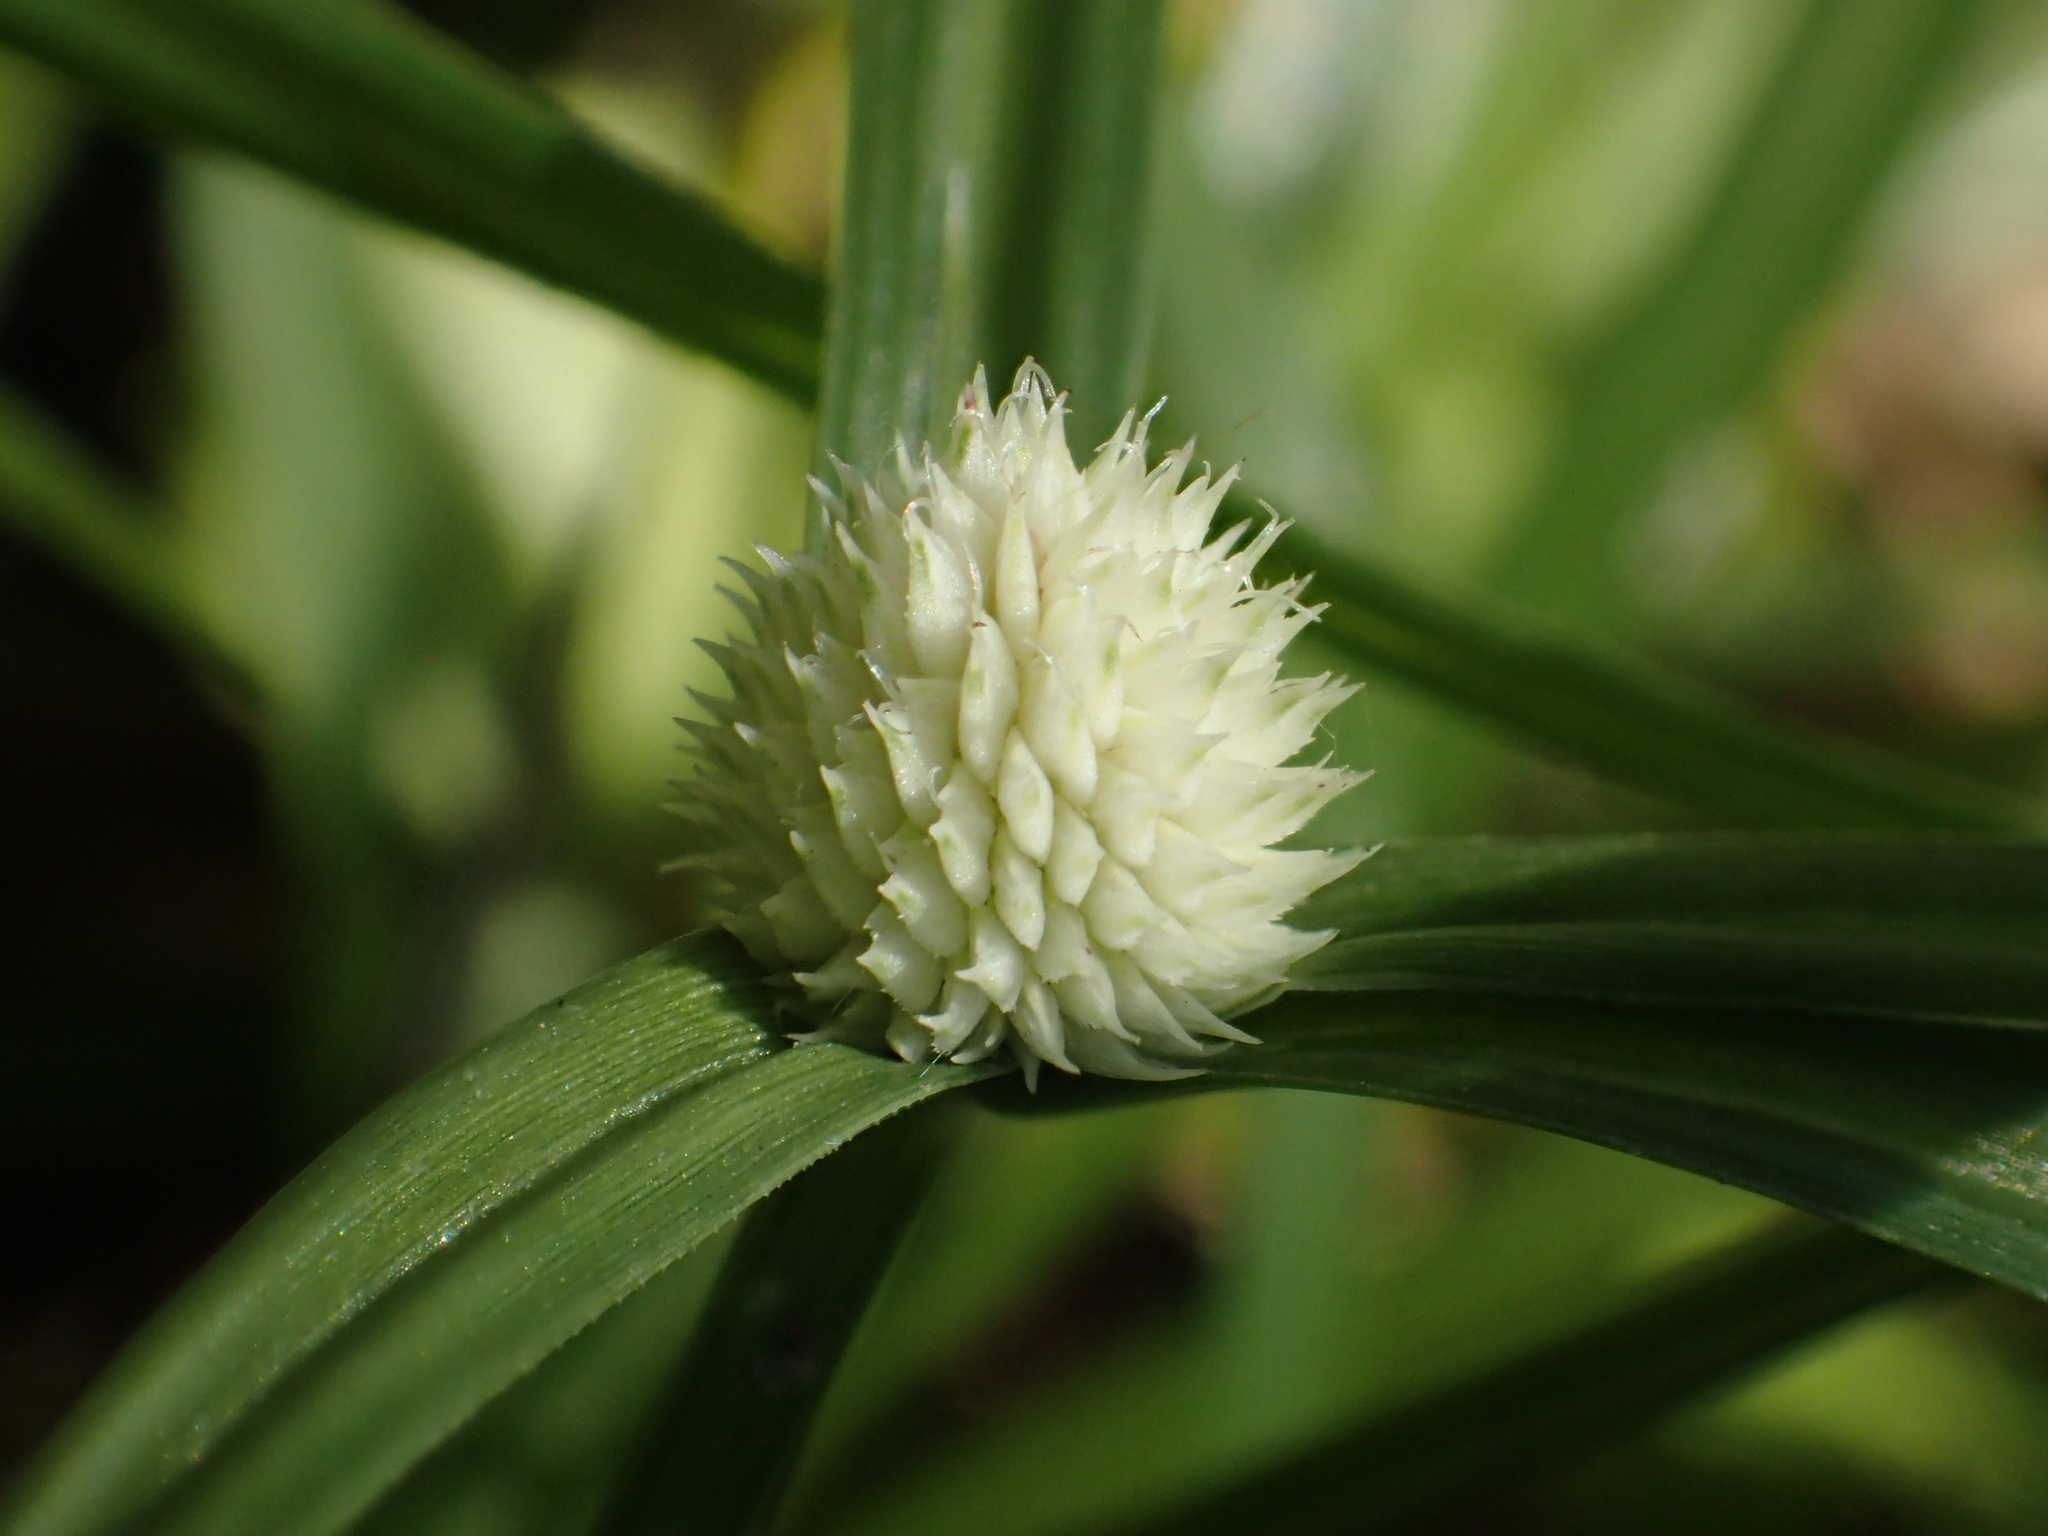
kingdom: Plantae
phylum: Tracheophyta
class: Liliopsida
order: Poales
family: Cyperaceae
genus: Cyperus
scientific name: Cyperus mindorensis
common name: Flatsedge
